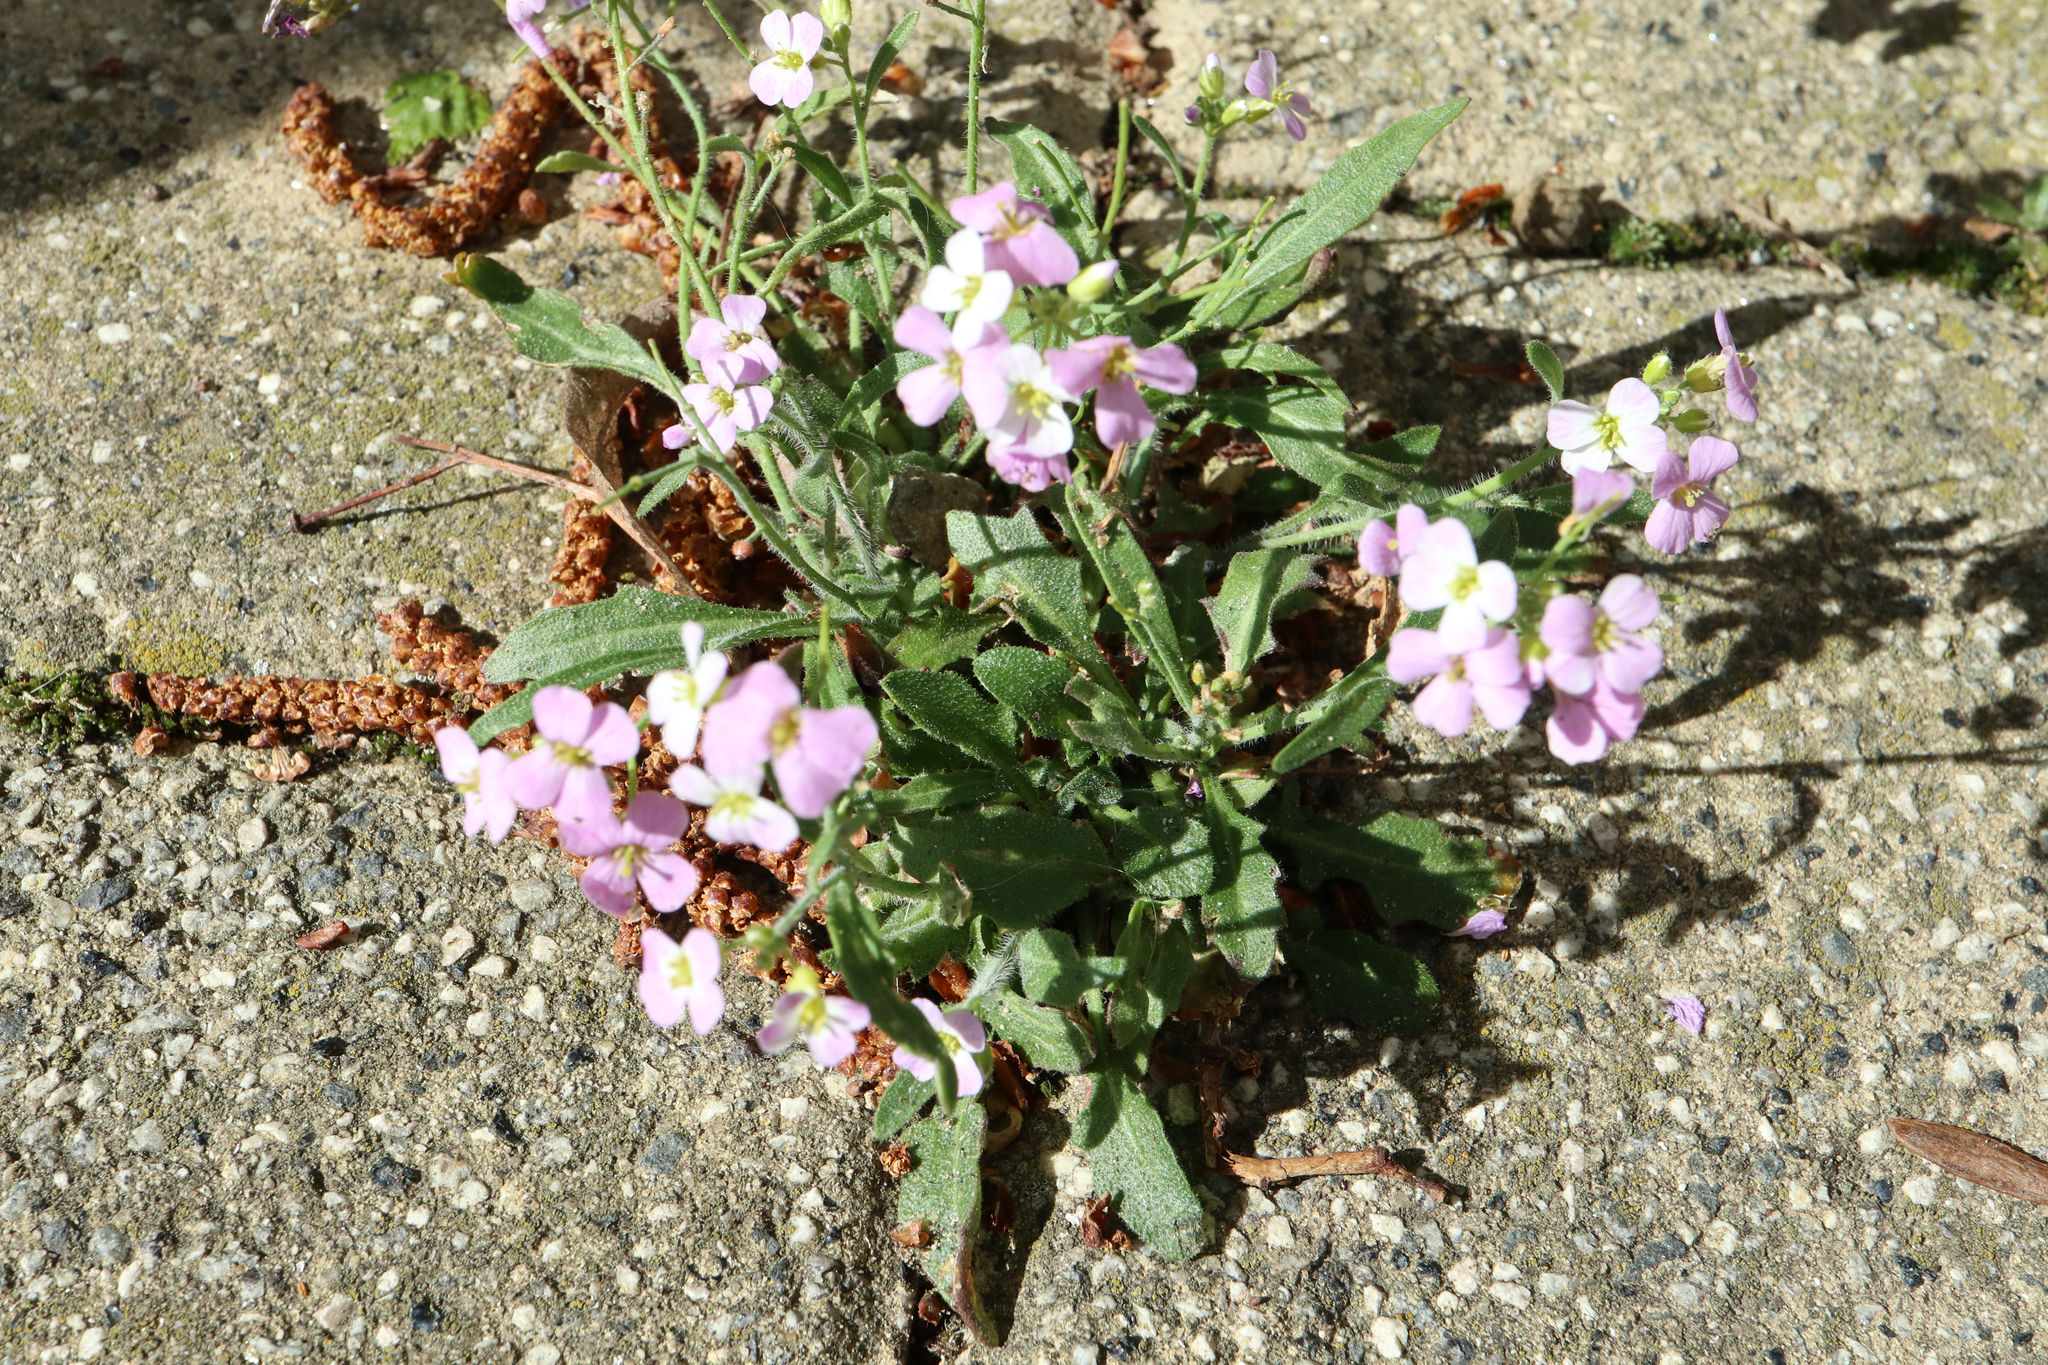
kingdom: Plantae
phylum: Tracheophyta
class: Magnoliopsida
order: Brassicales
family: Brassicaceae
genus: Arabidopsis
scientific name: Arabidopsis arenosa
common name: Sand rock-cress
